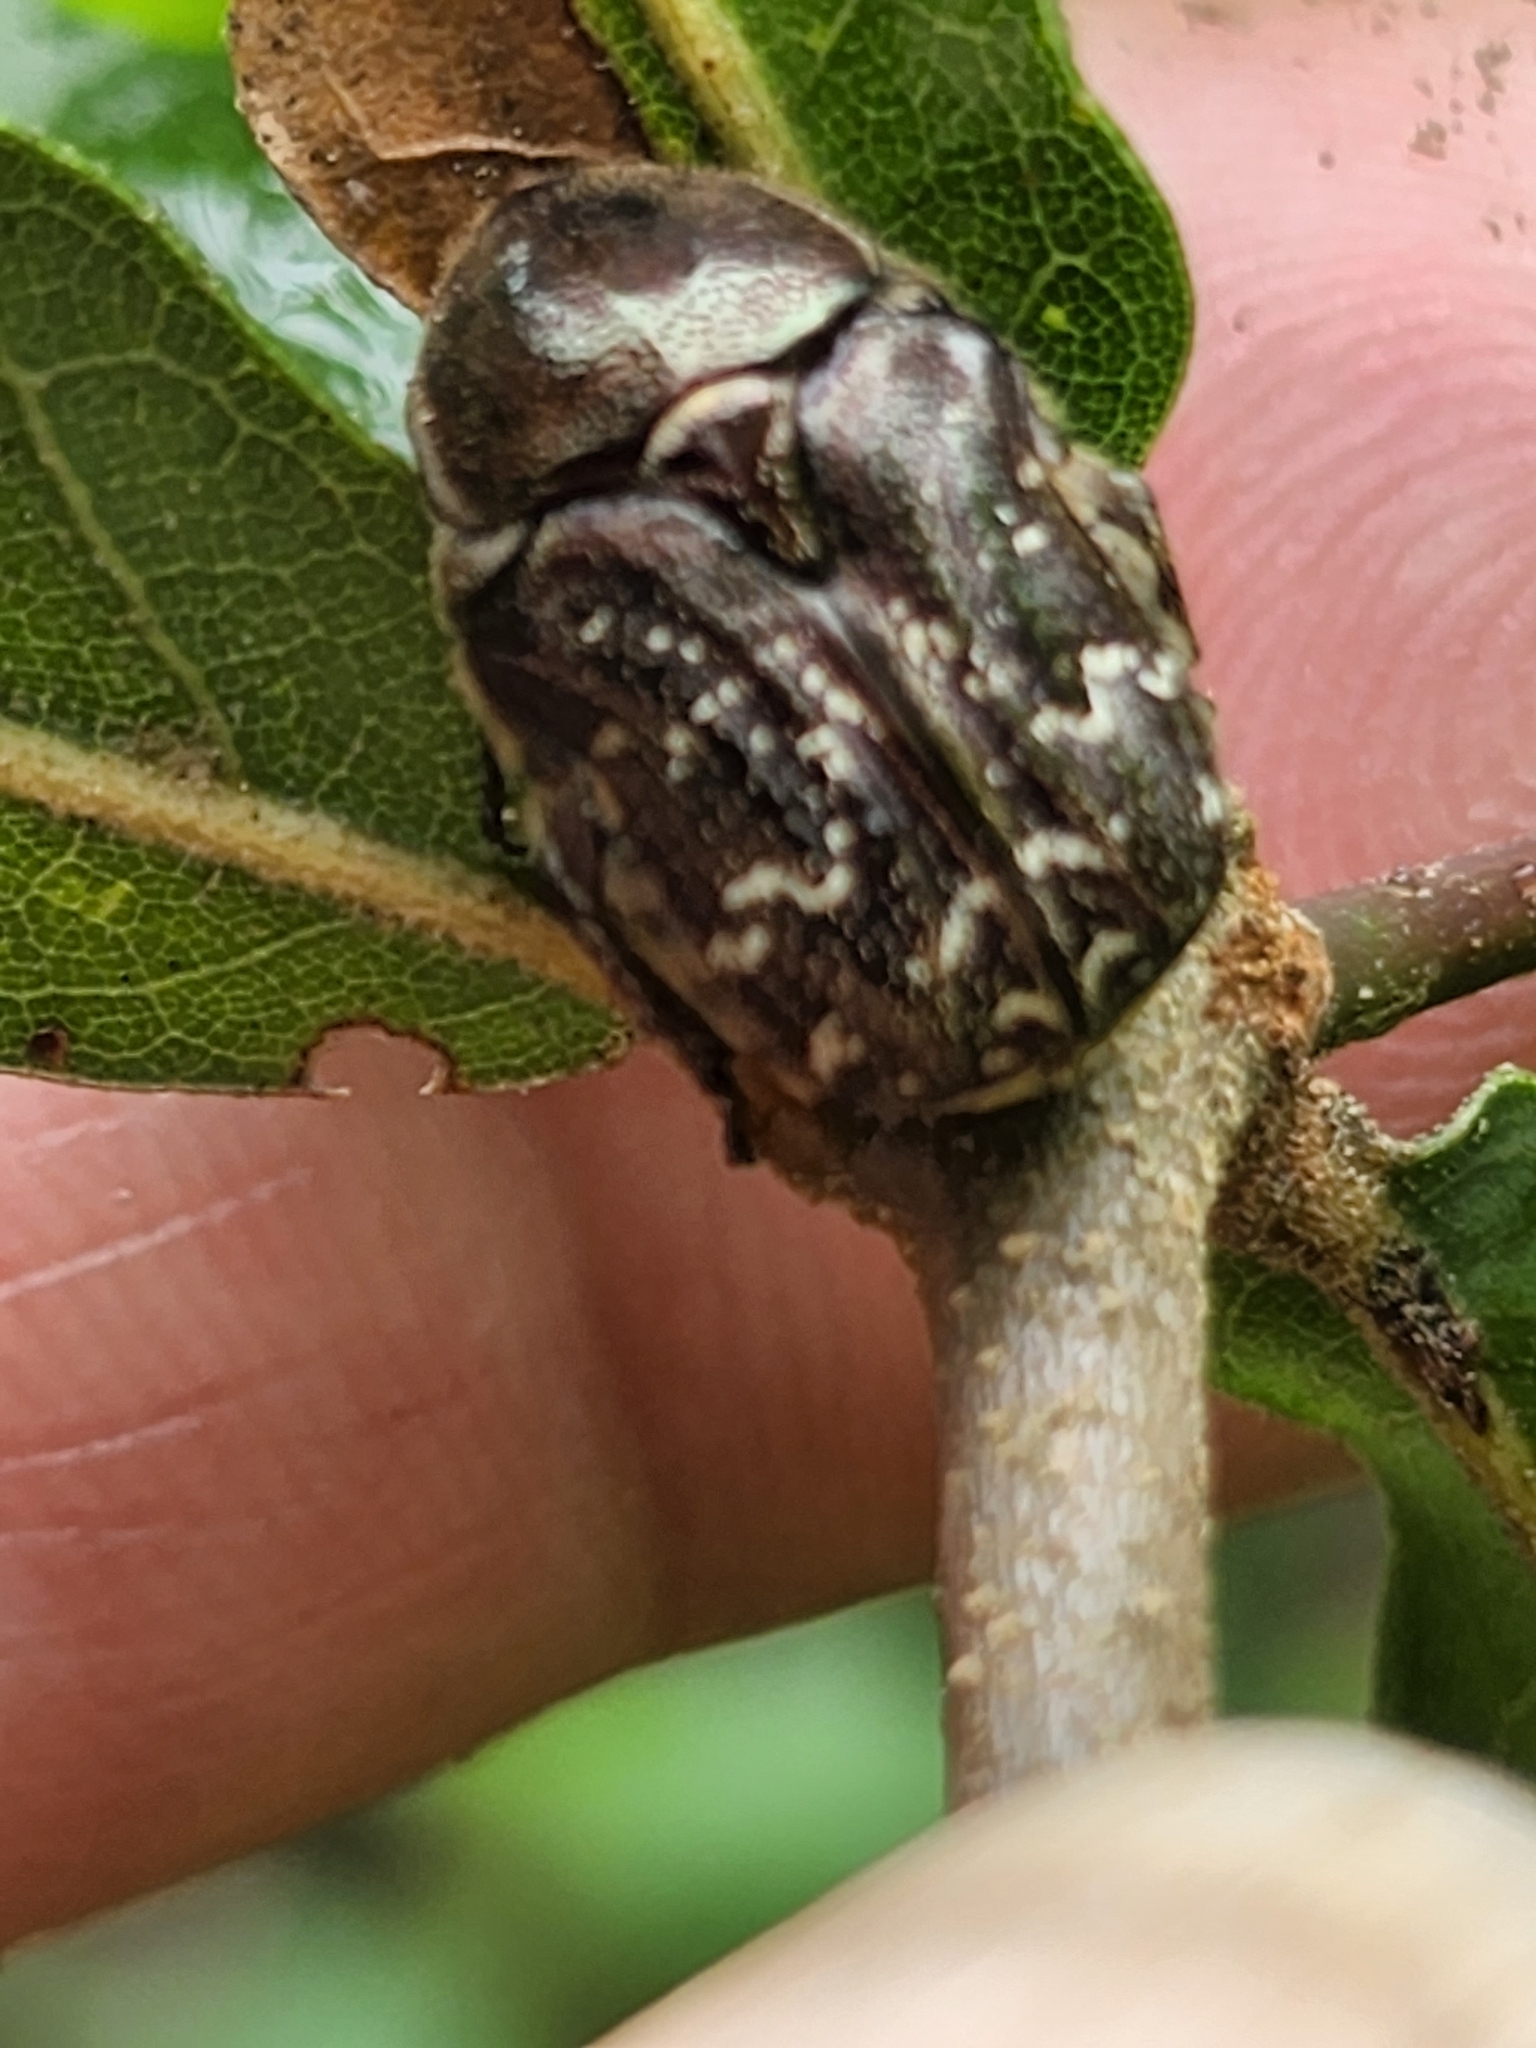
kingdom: Animalia
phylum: Arthropoda
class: Insecta
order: Coleoptera
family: Scarabaeidae
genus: Euphoria
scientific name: Euphoria sepulcralis
